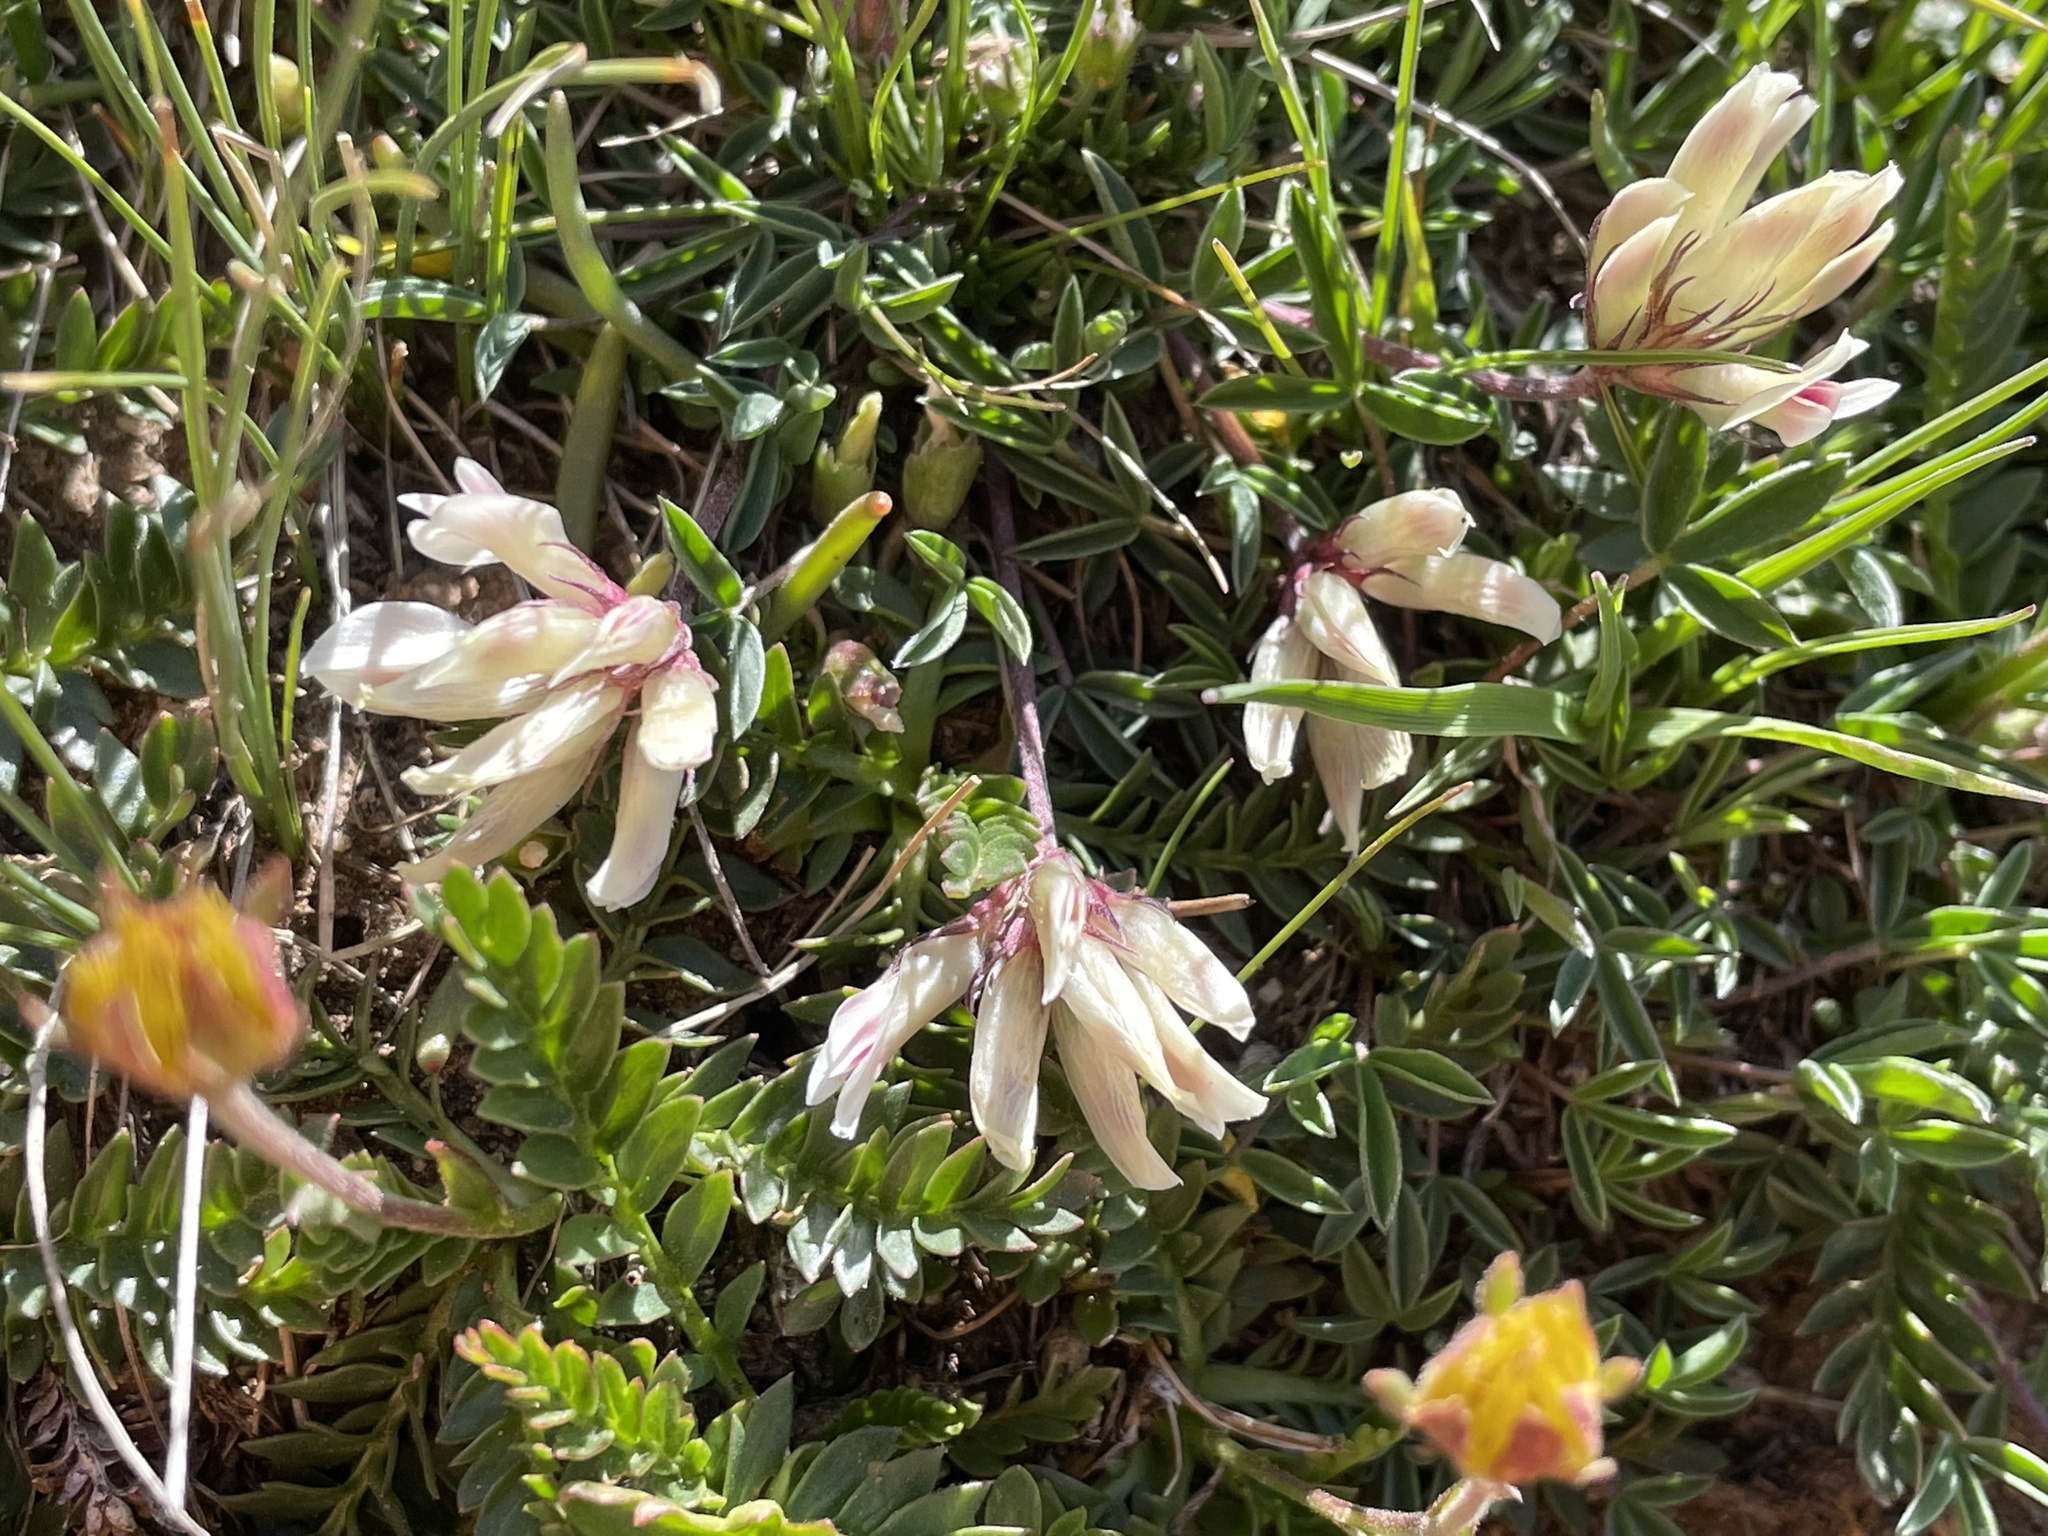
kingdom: Plantae
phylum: Tracheophyta
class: Magnoliopsida
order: Fabales
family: Fabaceae
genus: Trifolium
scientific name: Trifolium dasyphyllum
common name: Whip-root clover
